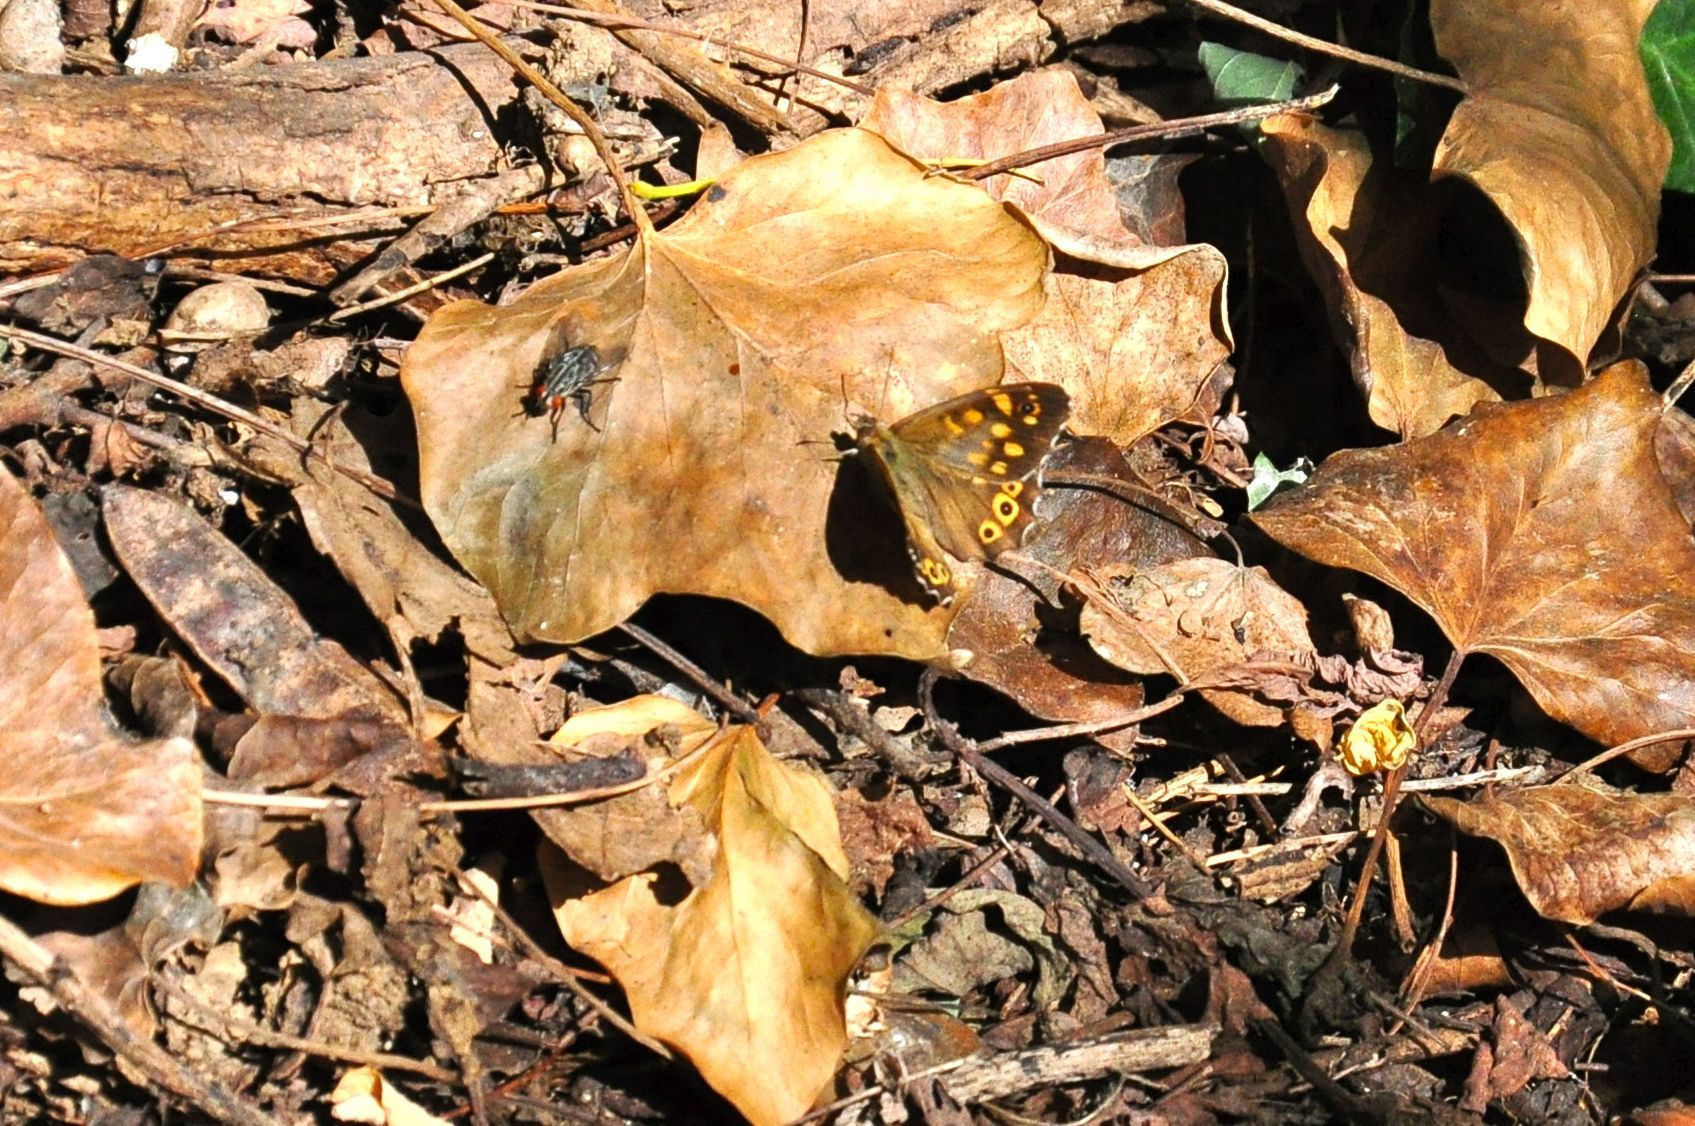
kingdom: Animalia
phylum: Arthropoda
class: Insecta
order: Lepidoptera
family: Nymphalidae
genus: Pararge
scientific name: Pararge aegeria
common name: Speckled wood
